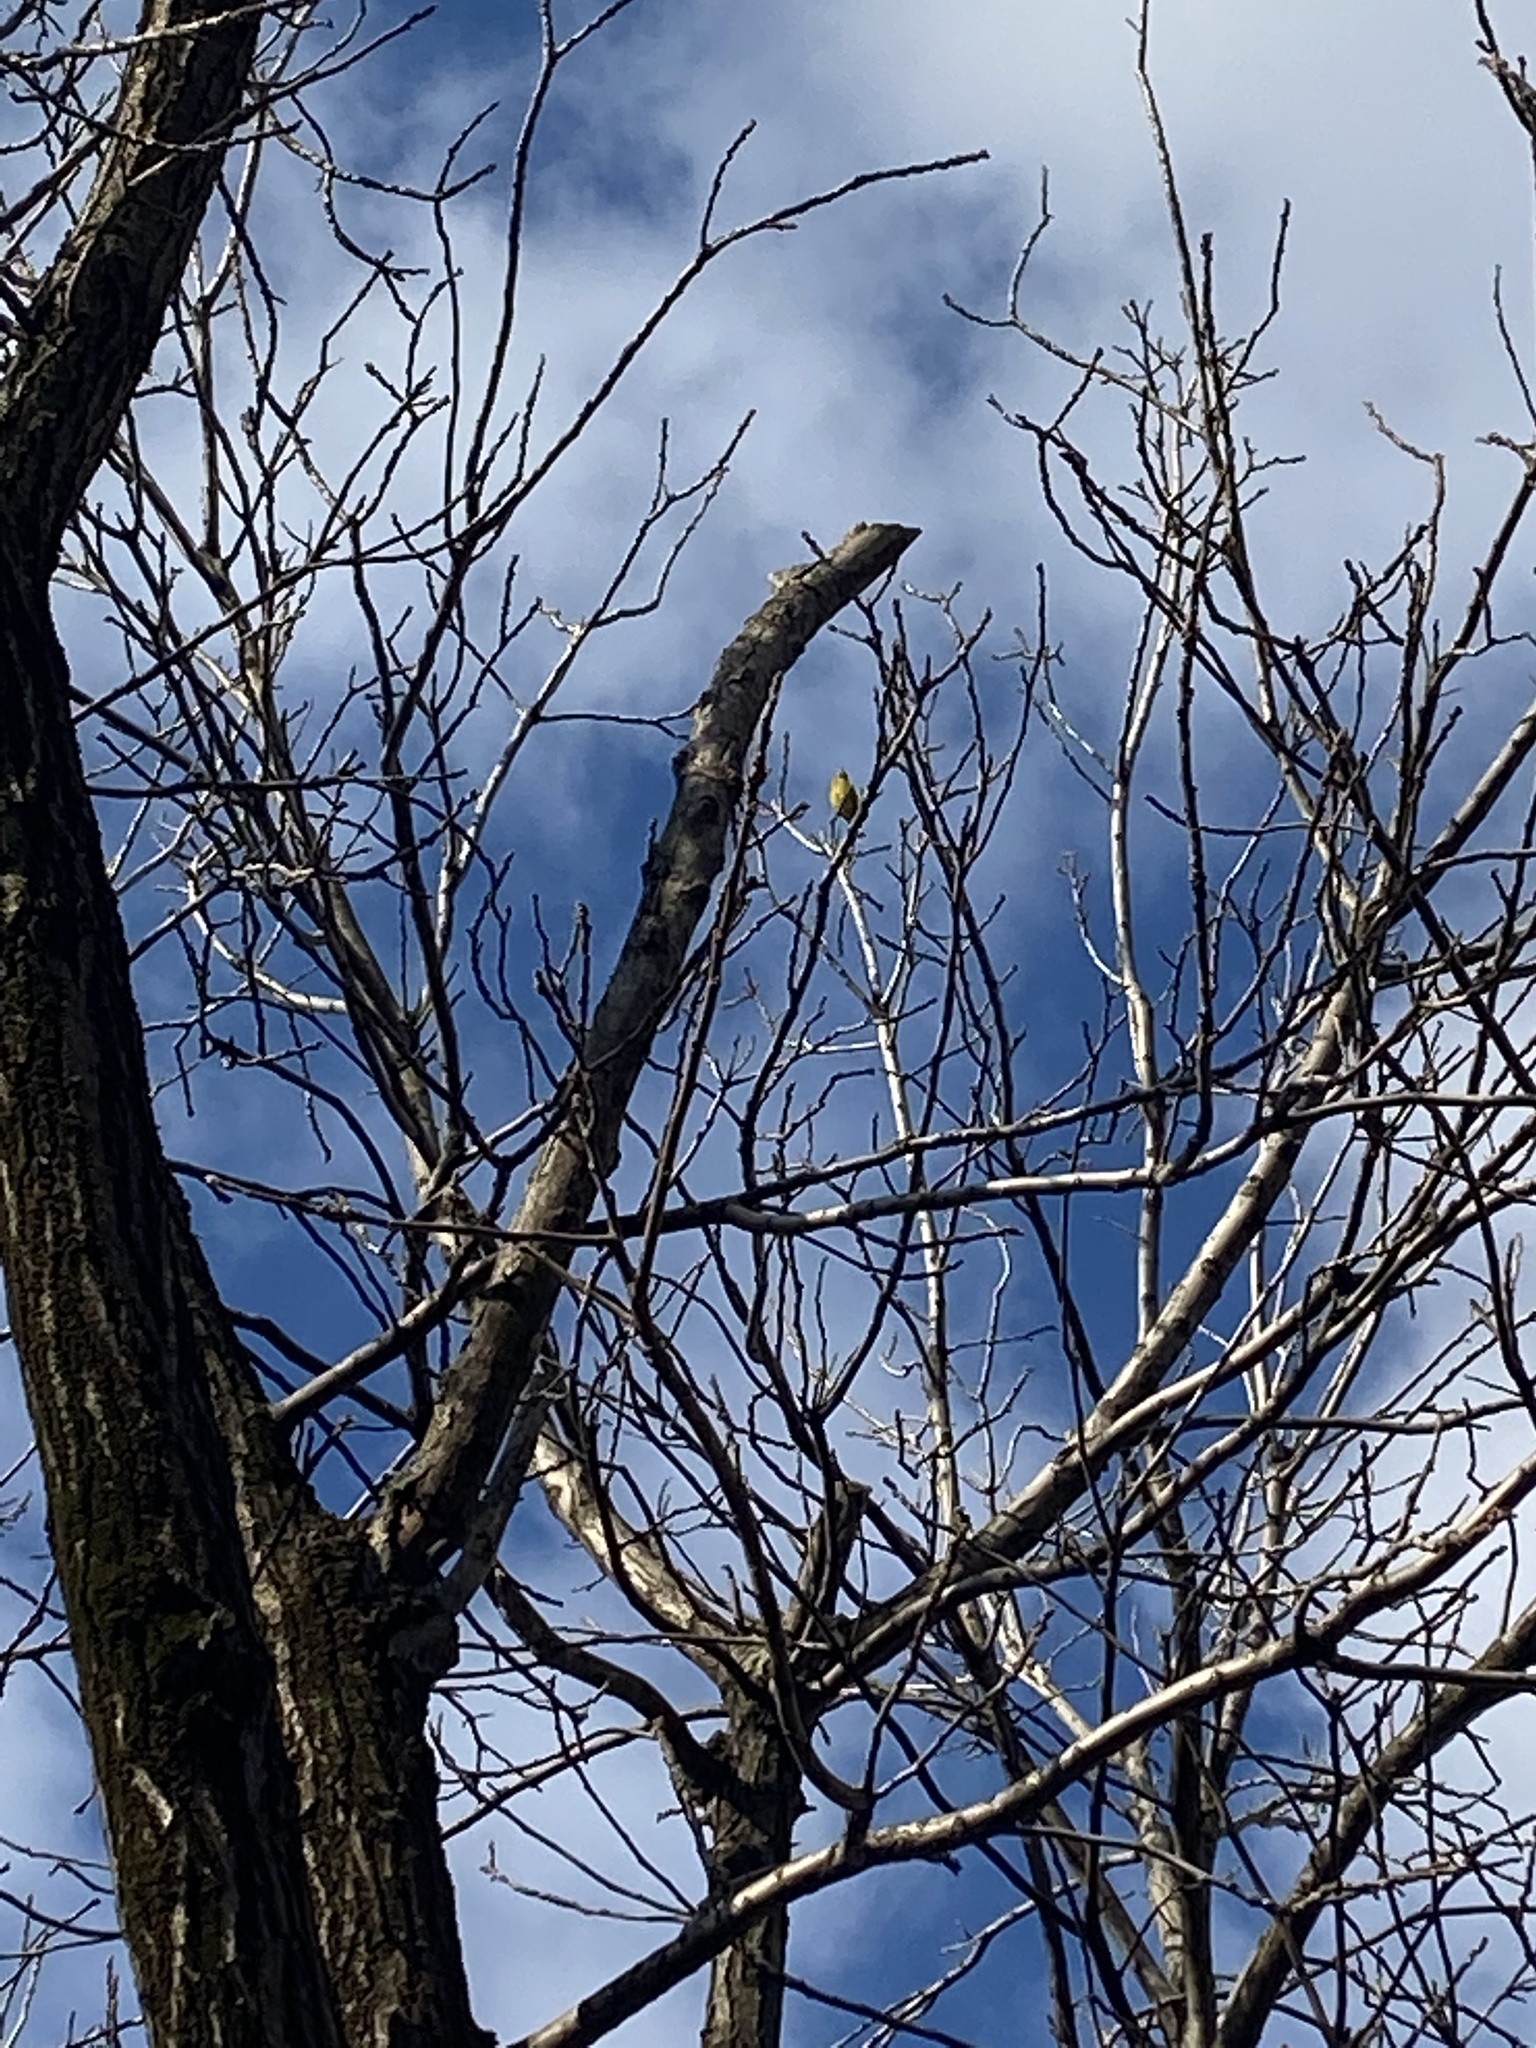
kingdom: Plantae
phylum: Tracheophyta
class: Liliopsida
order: Poales
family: Poaceae
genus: Chloris
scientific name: Chloris chloris
